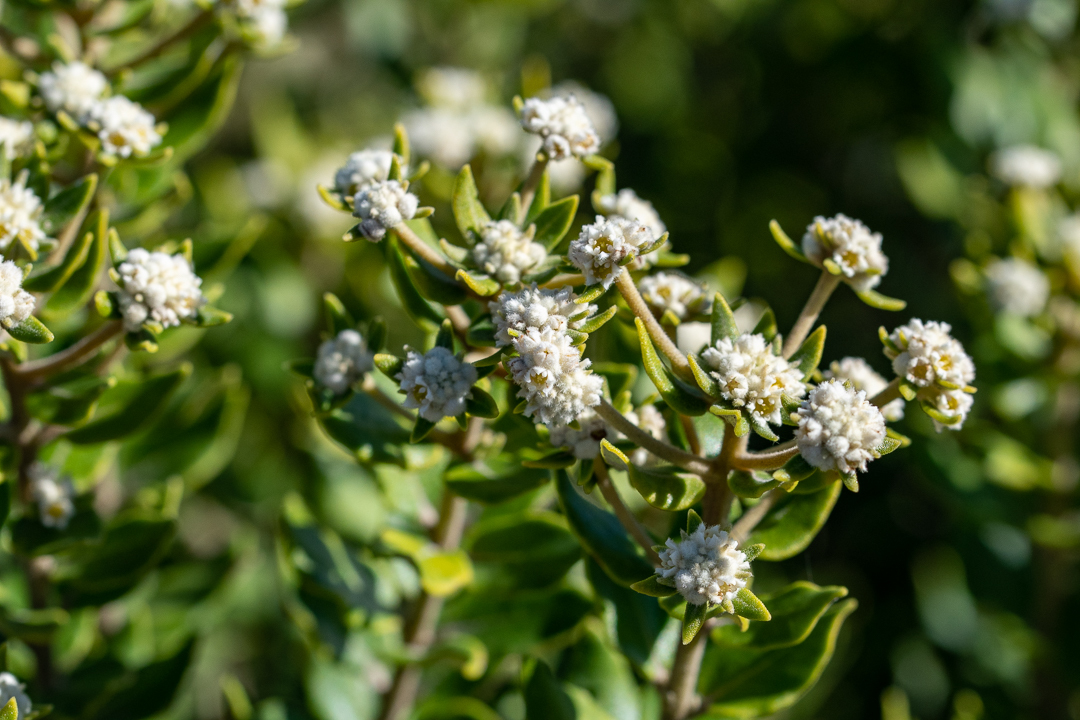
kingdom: Plantae
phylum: Tracheophyta
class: Magnoliopsida
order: Rosales
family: Rhamnaceae
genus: Phylica
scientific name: Phylica buxifolia
